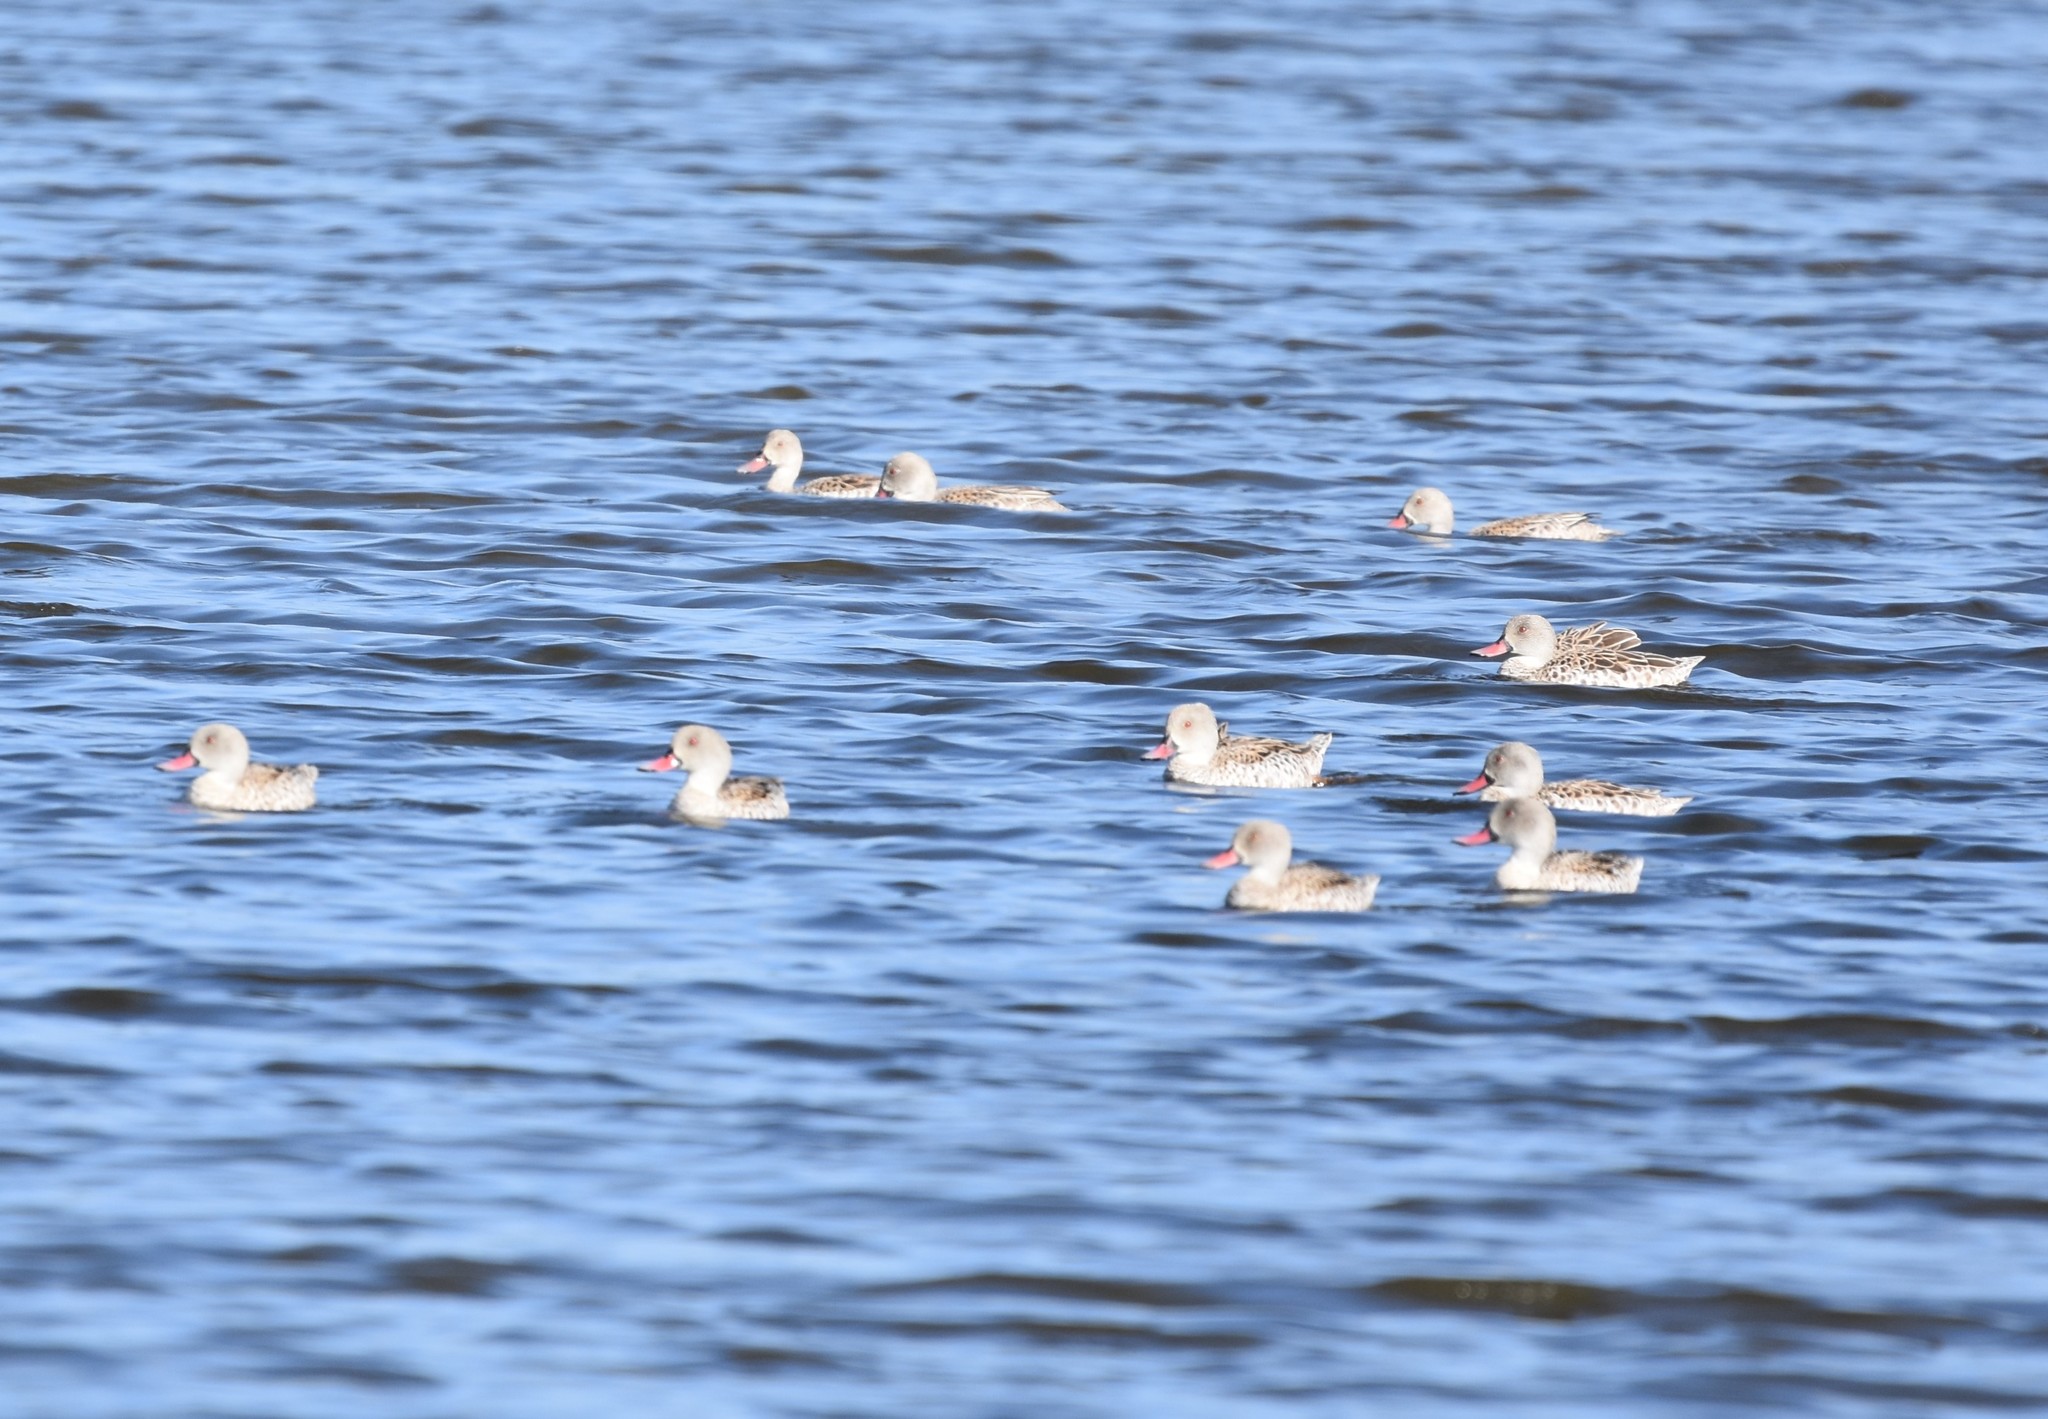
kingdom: Animalia
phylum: Chordata
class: Aves
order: Anseriformes
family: Anatidae
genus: Anas
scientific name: Anas capensis
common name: Cape teal
